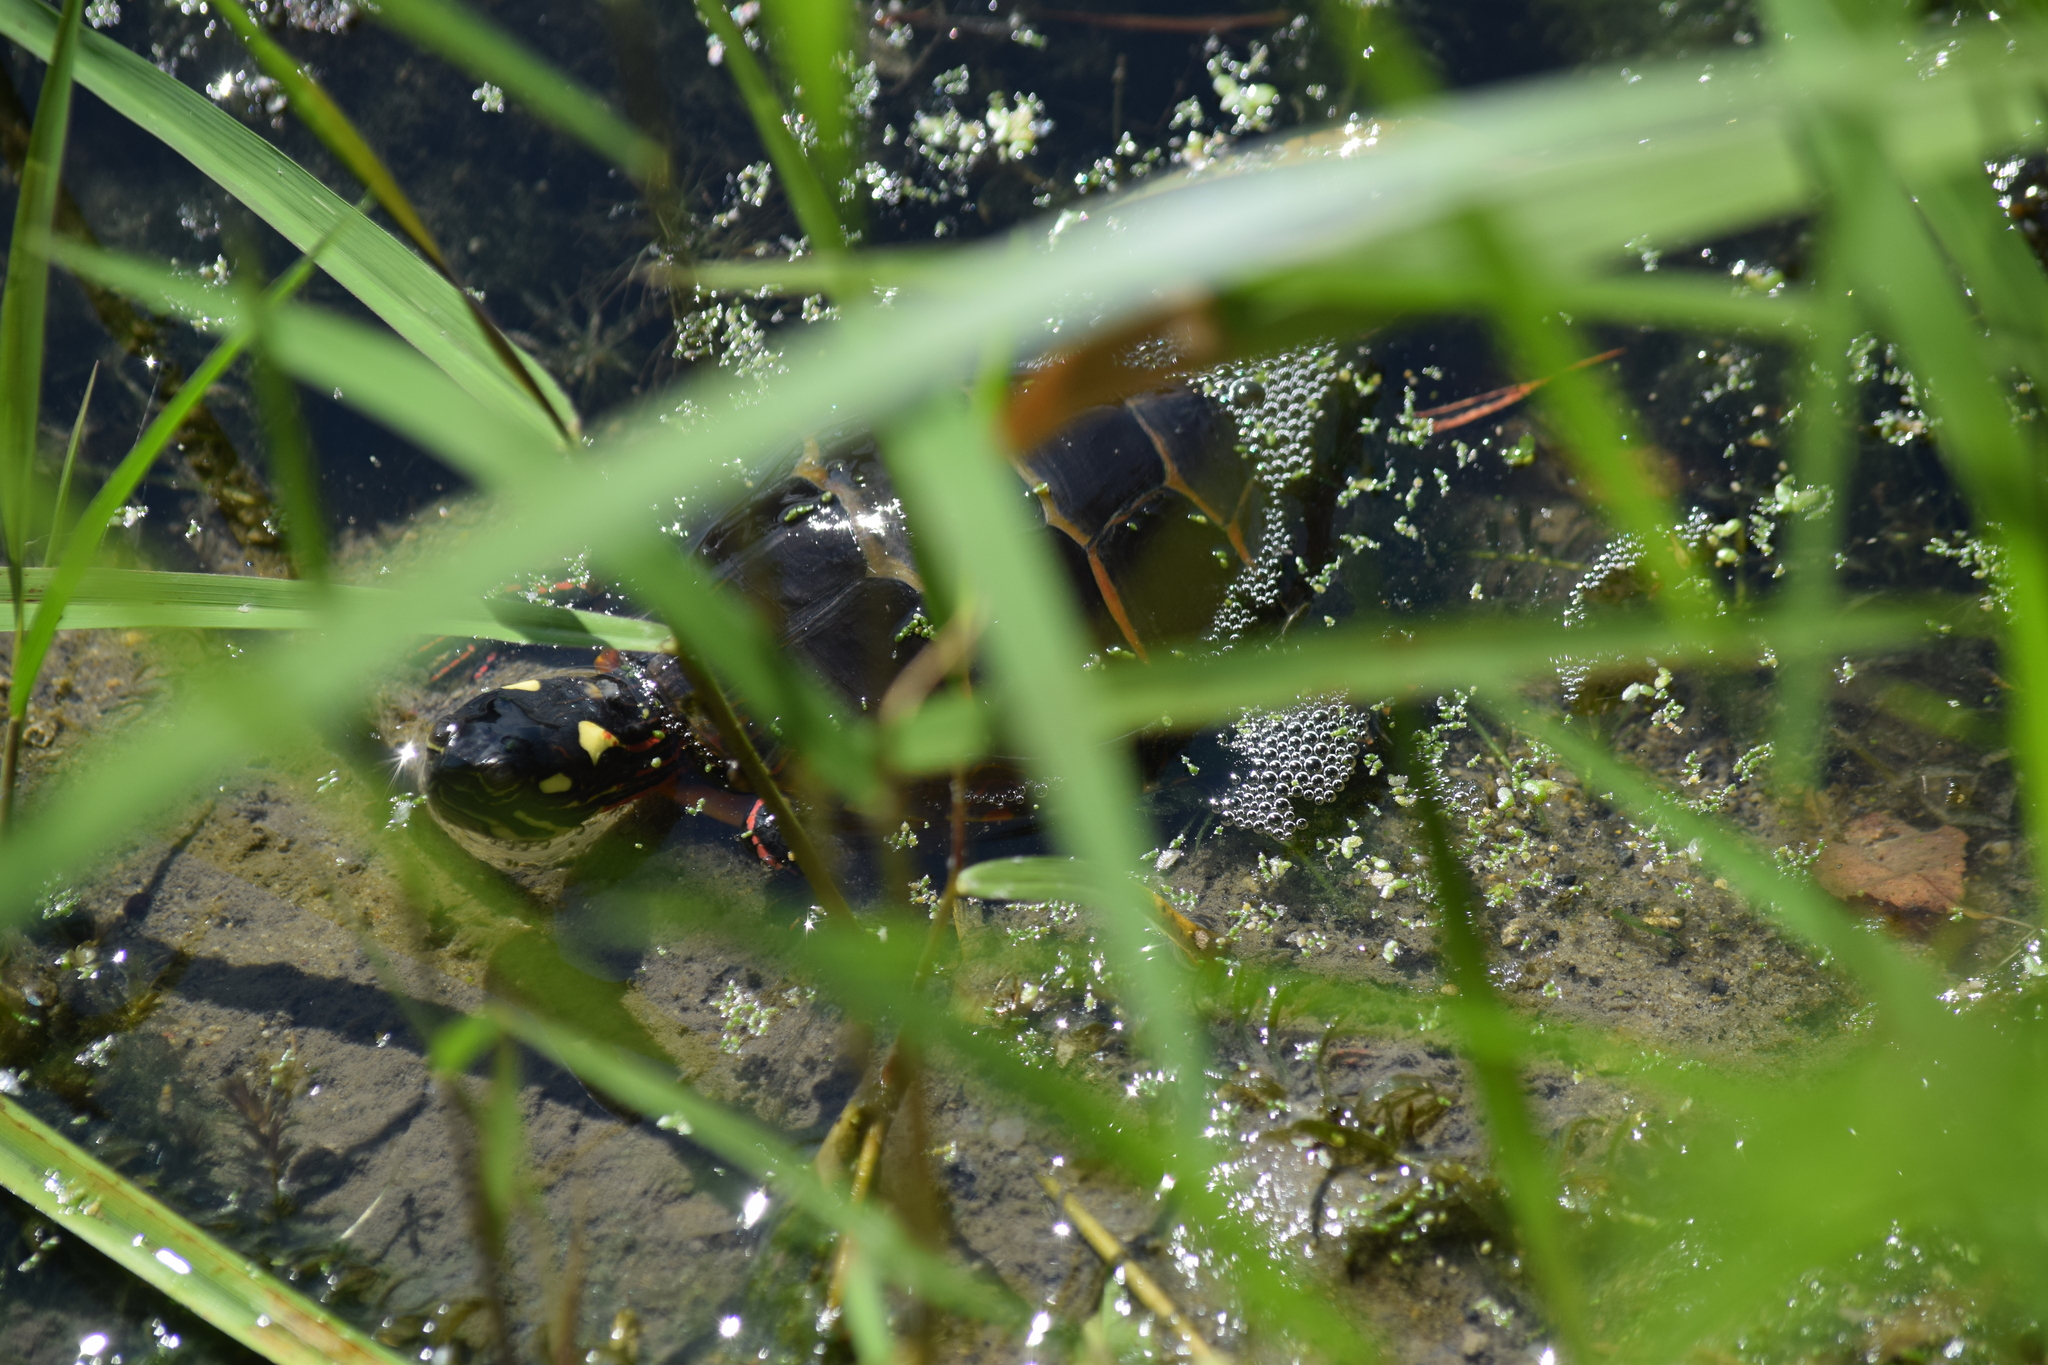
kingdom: Animalia
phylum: Chordata
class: Testudines
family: Emydidae
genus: Chrysemys
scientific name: Chrysemys picta
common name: Painted turtle
